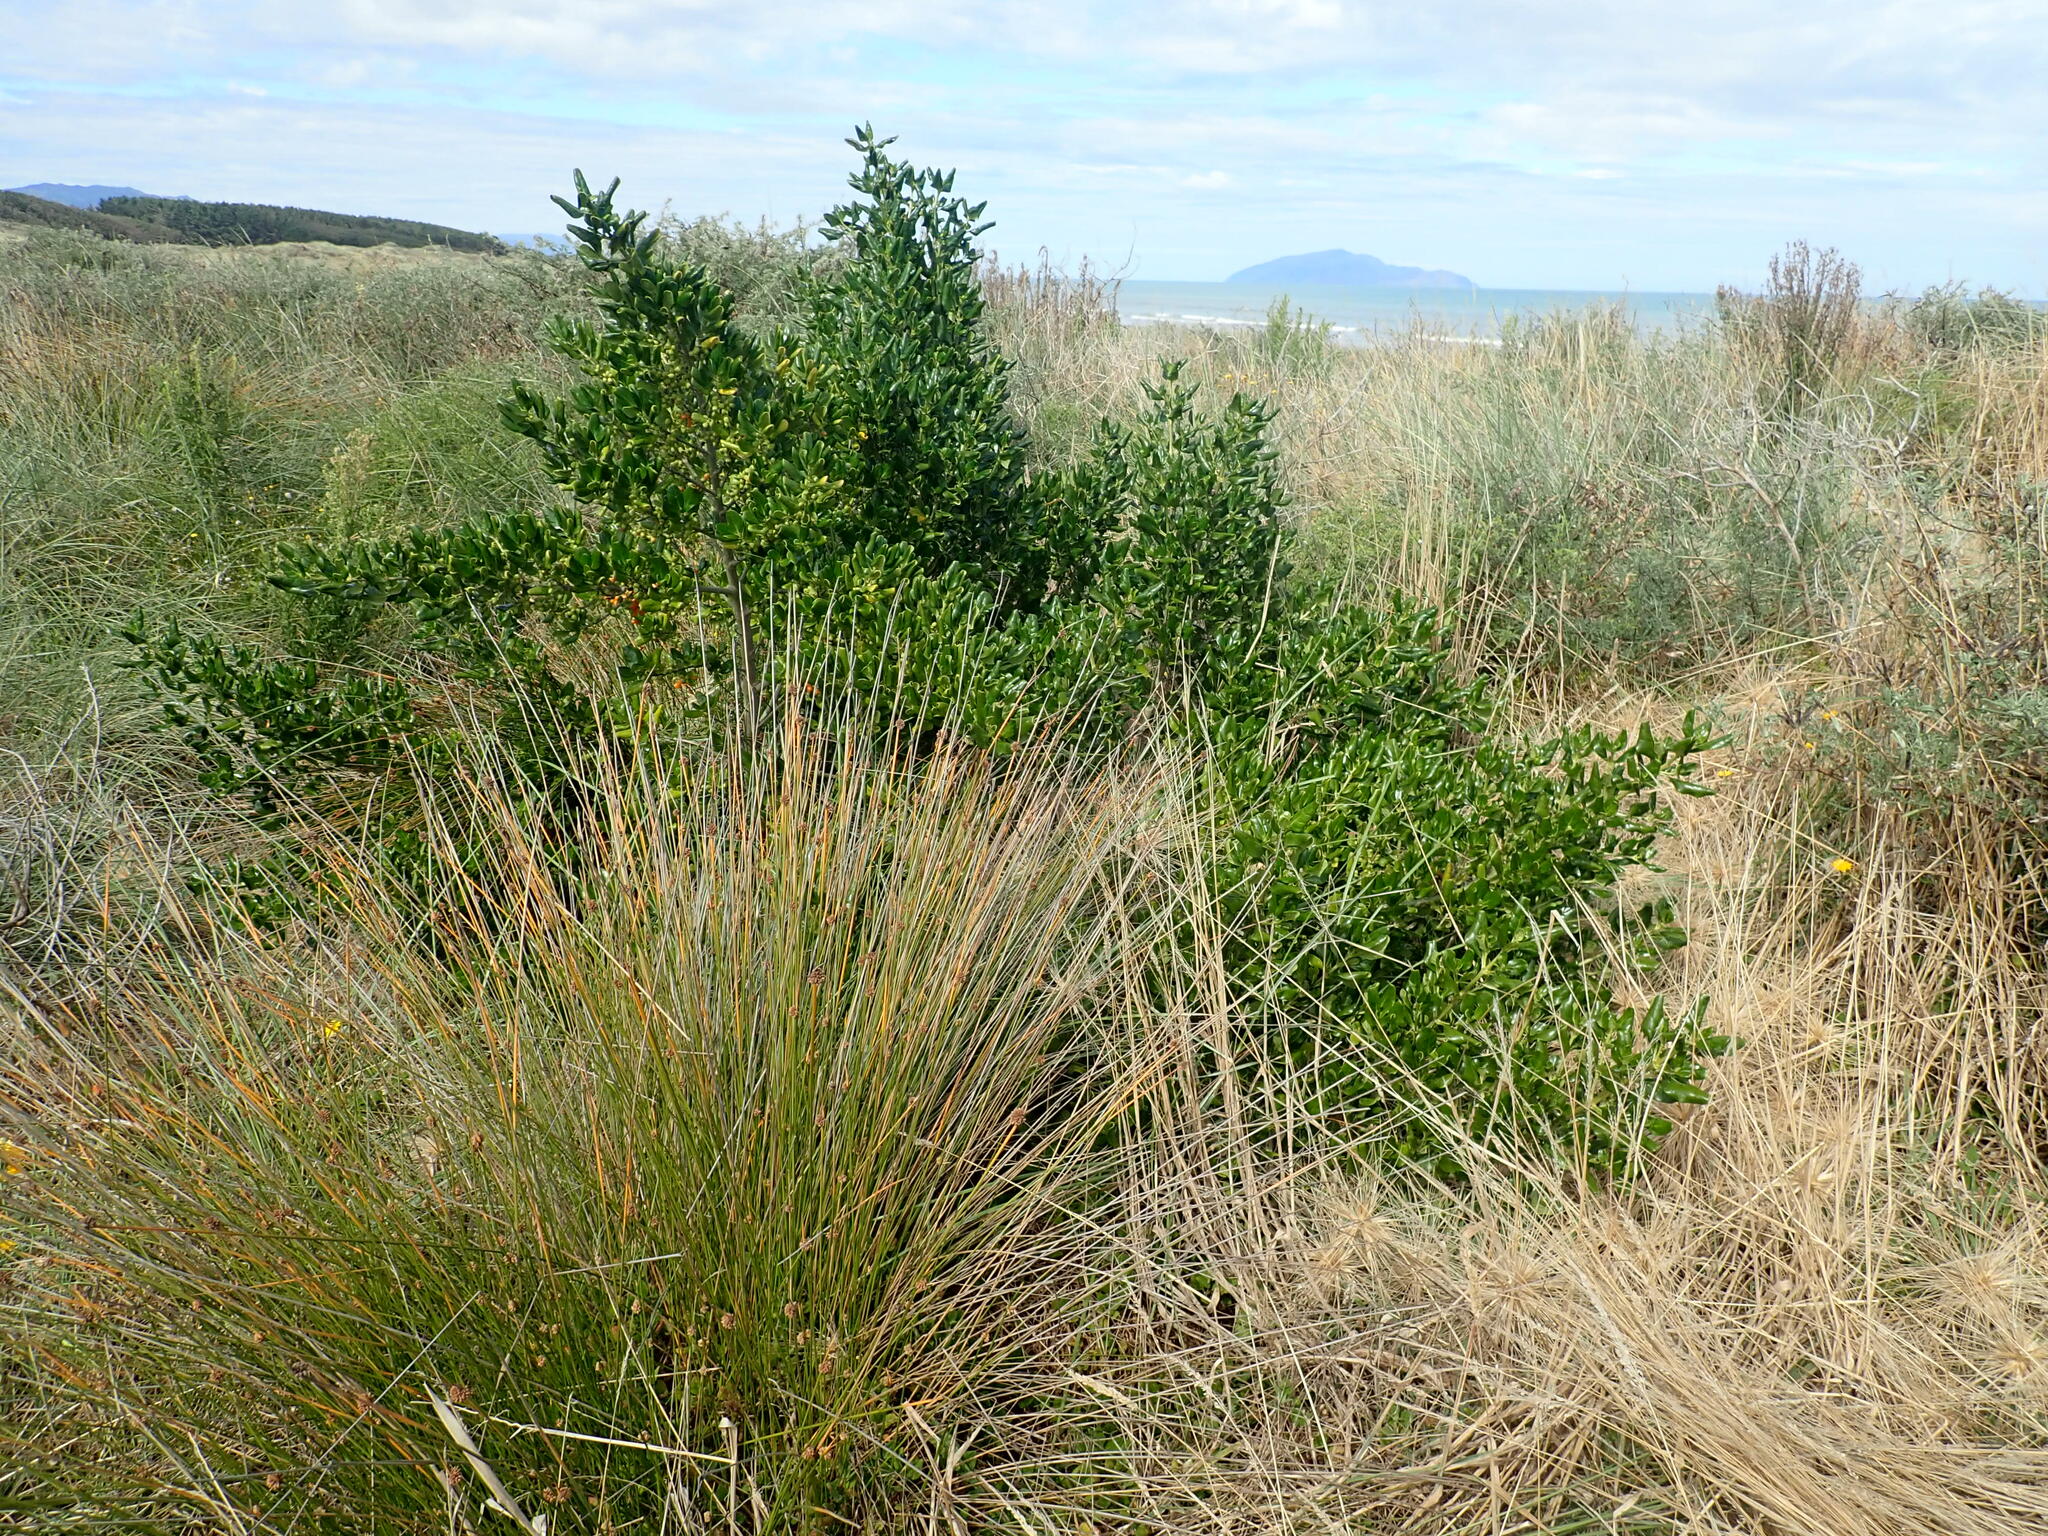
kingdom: Plantae
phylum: Tracheophyta
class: Magnoliopsida
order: Gentianales
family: Rubiaceae
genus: Coprosma
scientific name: Coprosma repens
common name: Tree bedstraw
